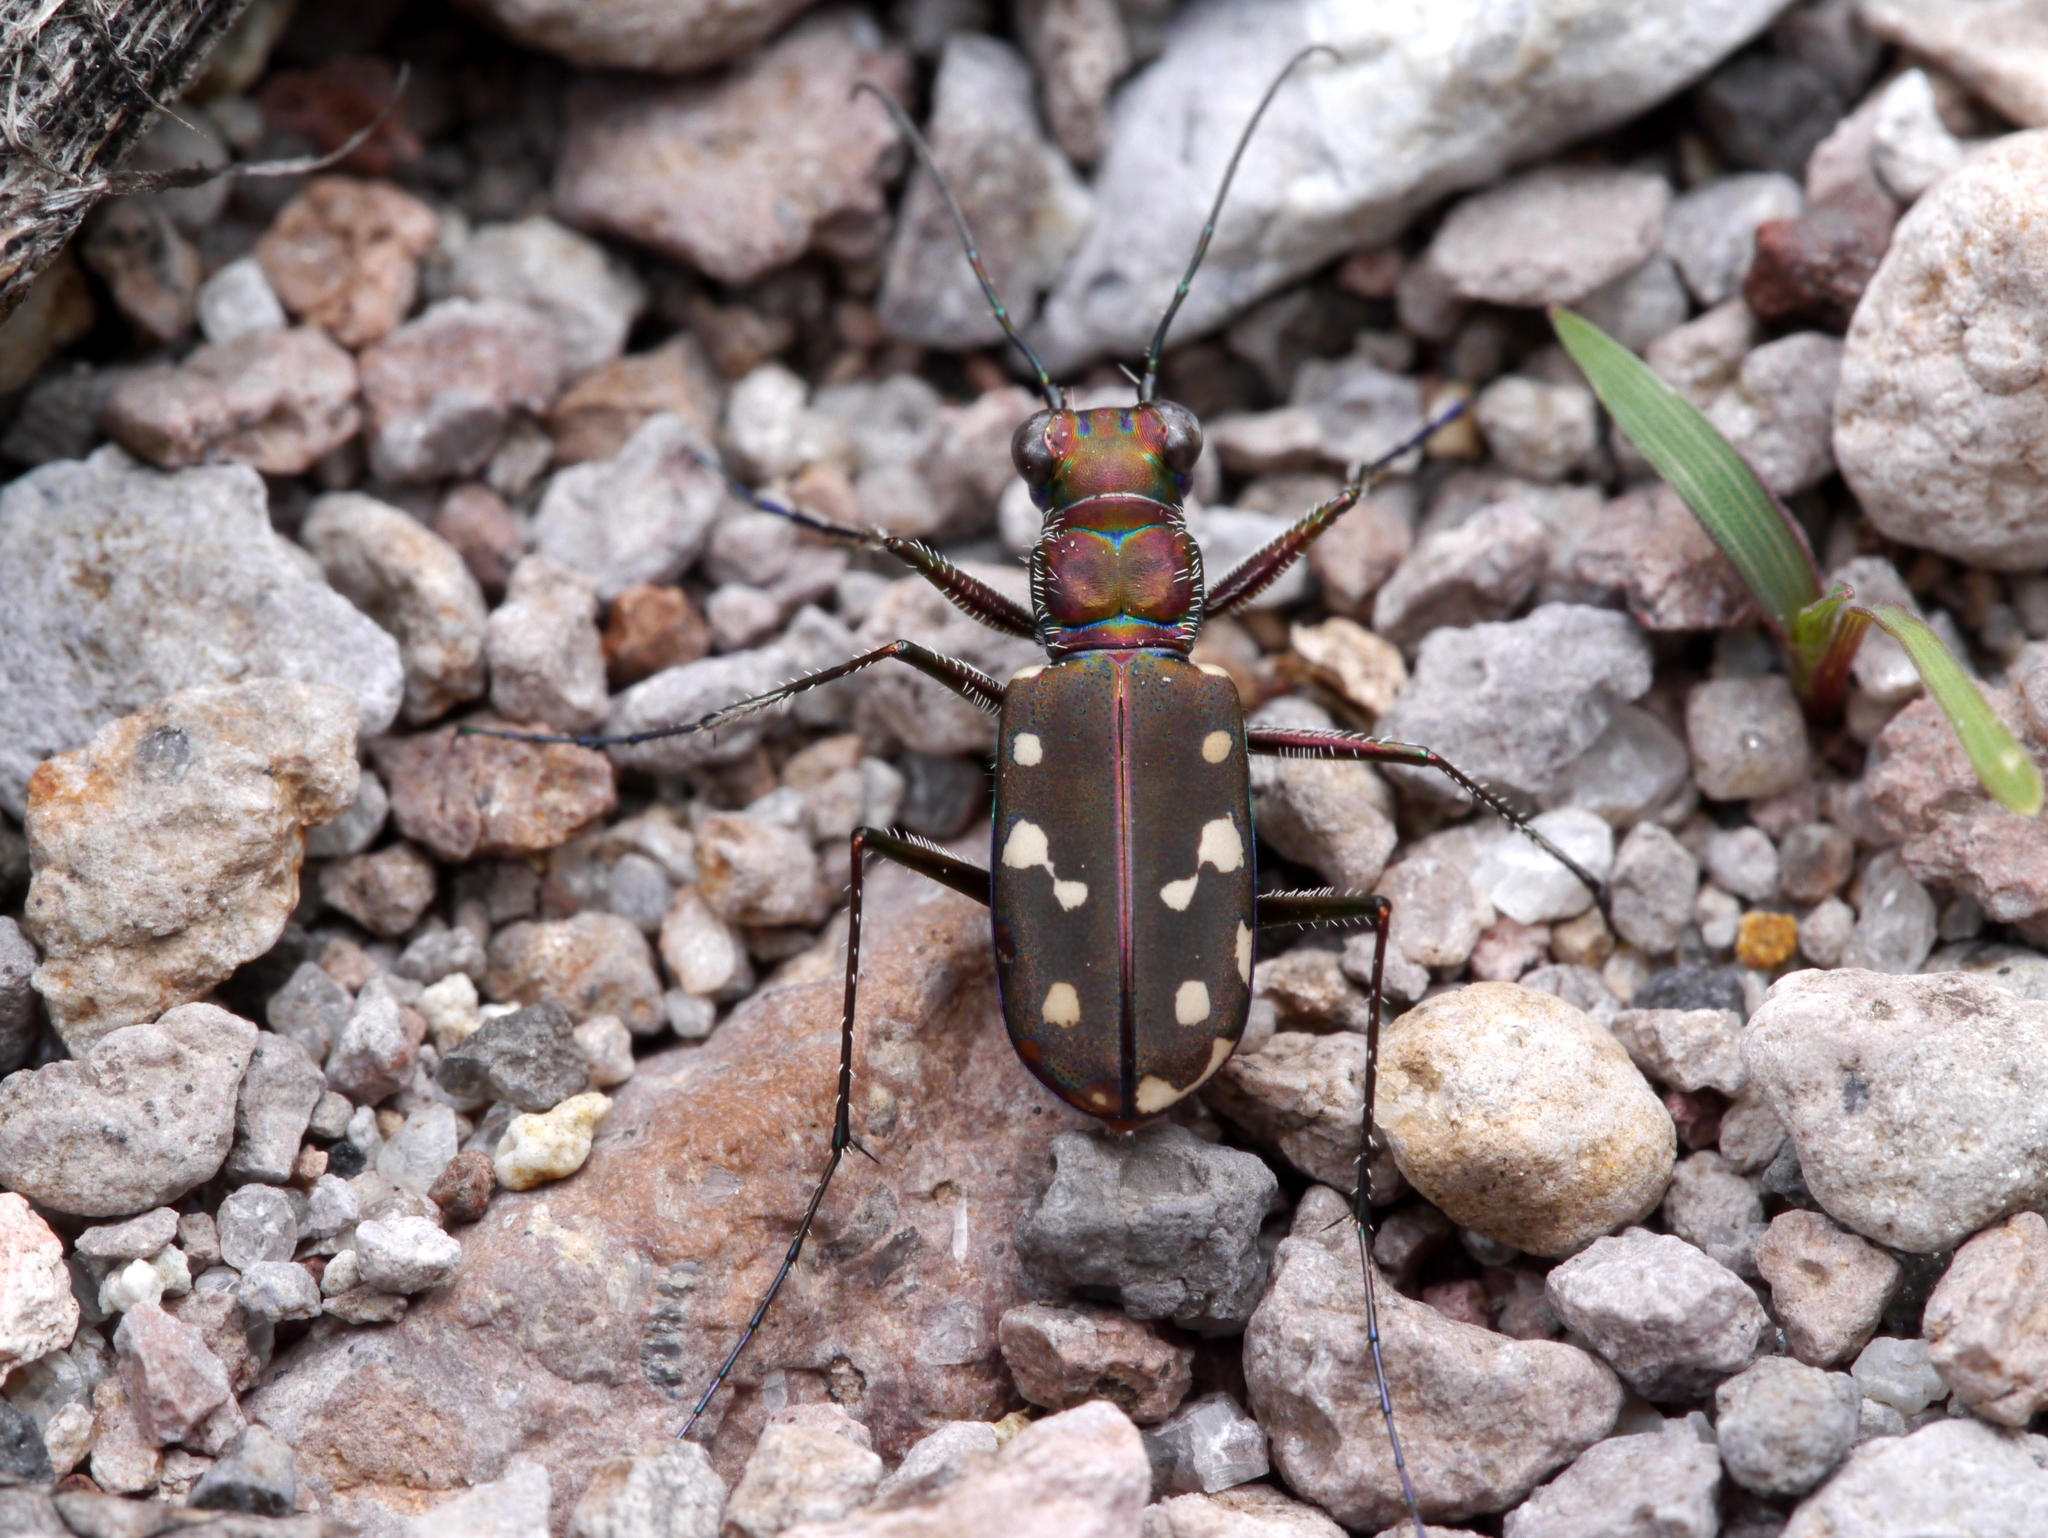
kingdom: Animalia
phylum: Arthropoda
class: Insecta
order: Coleoptera
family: Carabidae
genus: Cicindela
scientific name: Cicindela sedecimpunctata
